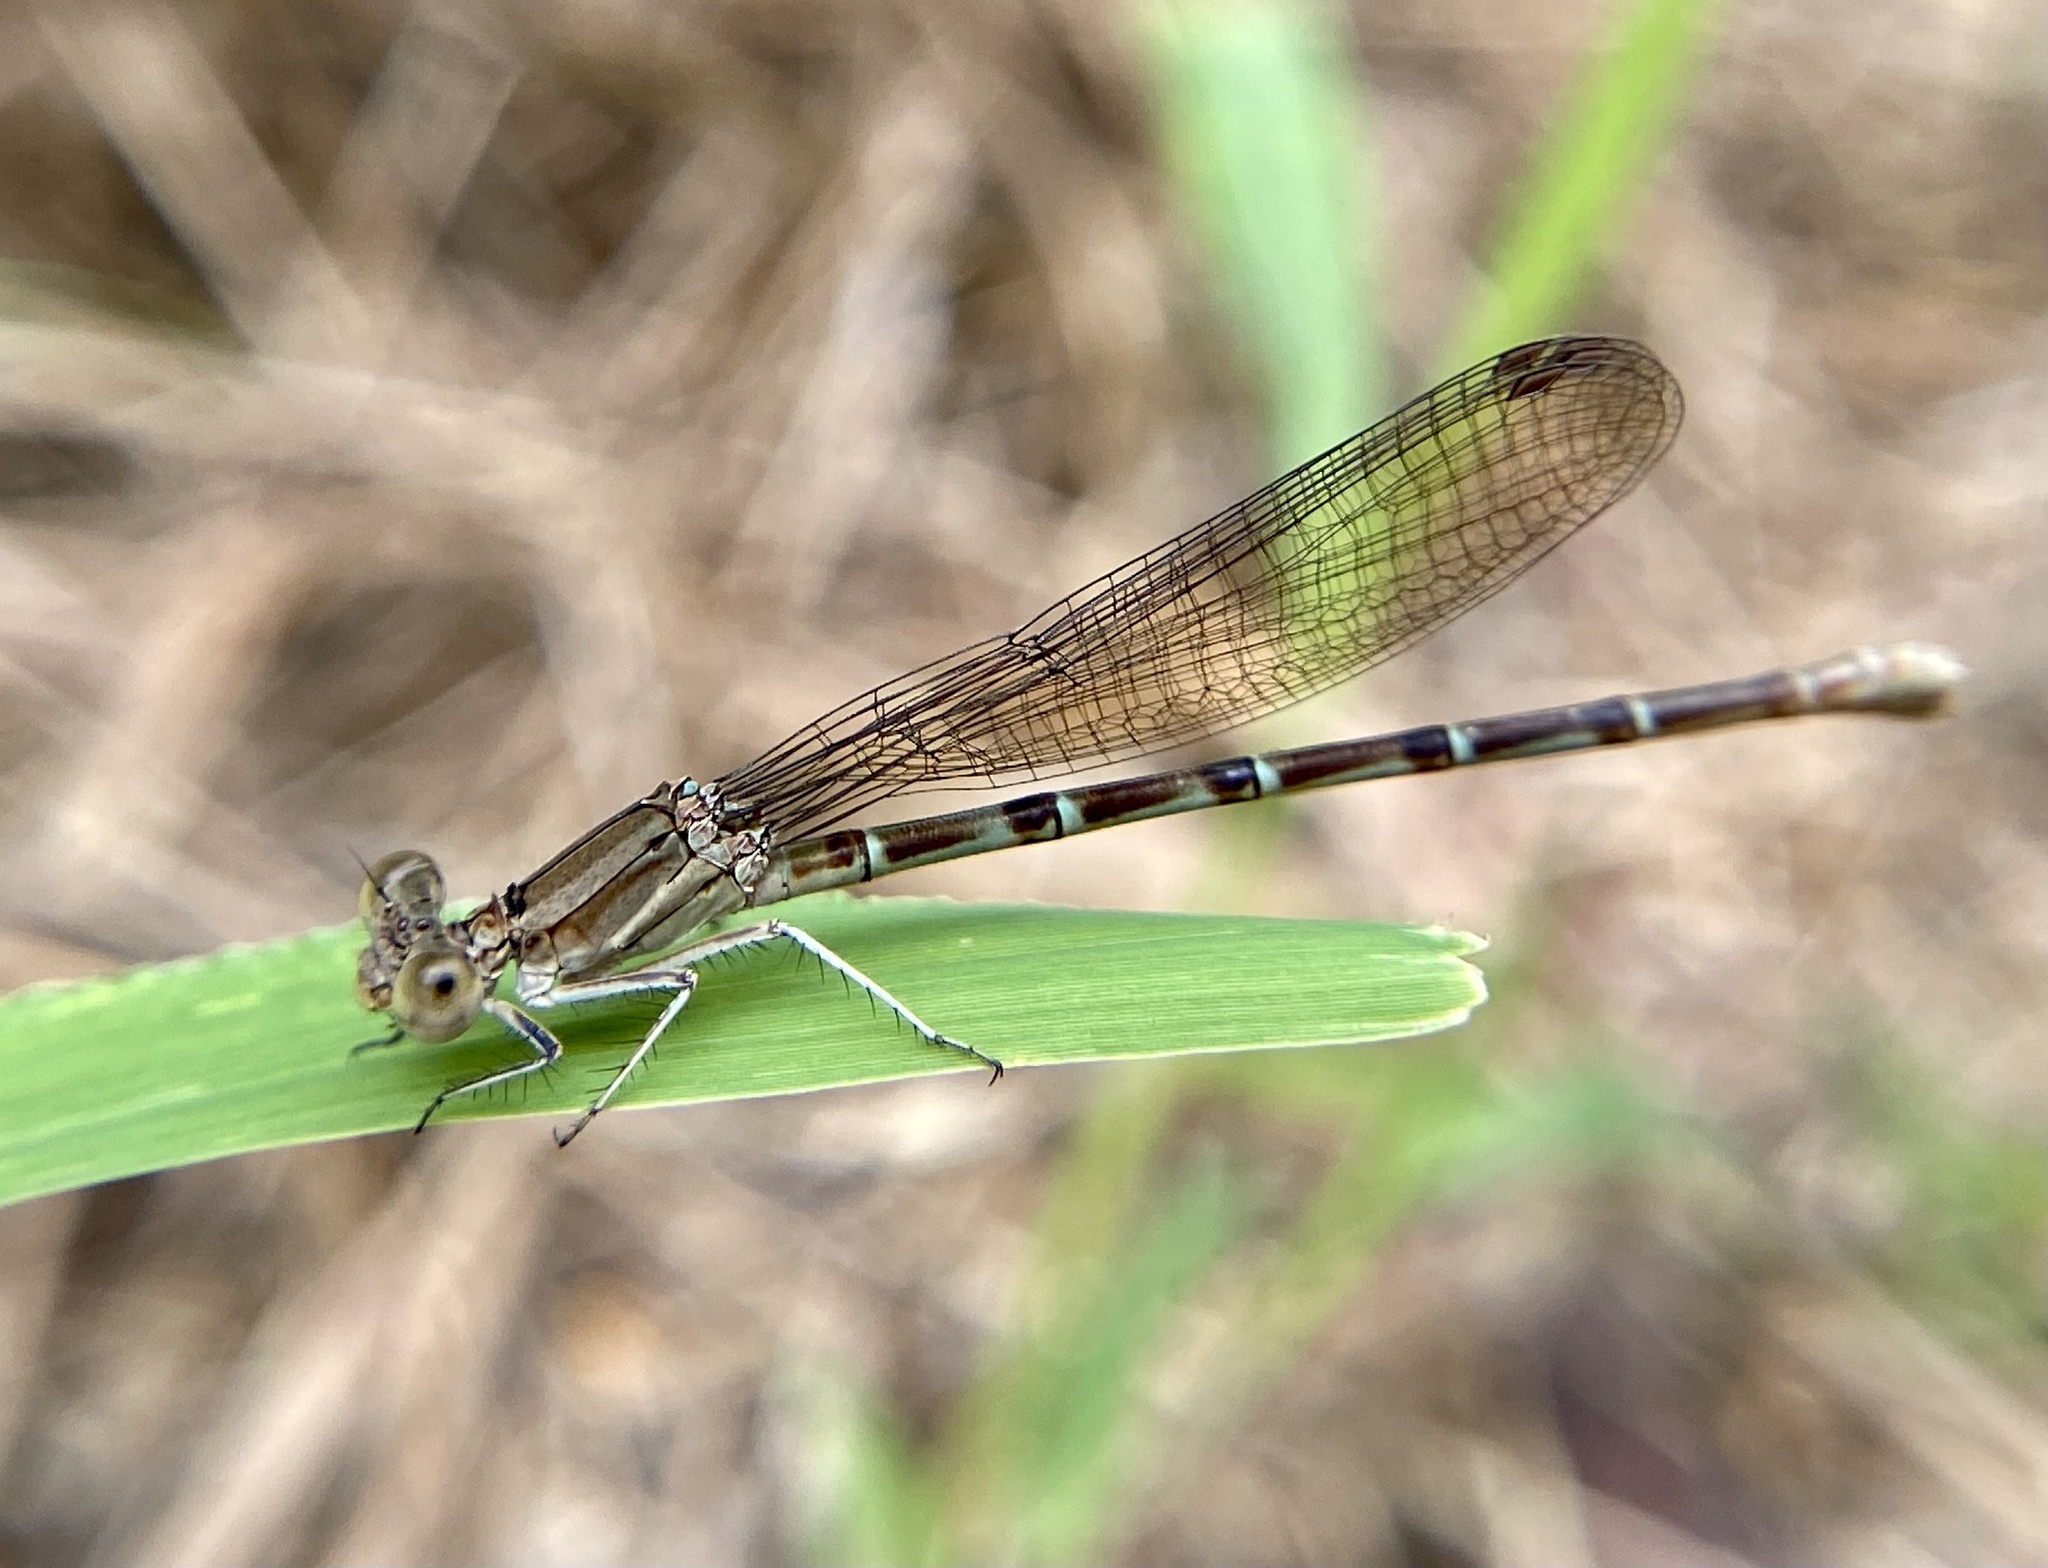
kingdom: Animalia
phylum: Arthropoda
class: Insecta
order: Odonata
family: Coenagrionidae
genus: Argia
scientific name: Argia sedula
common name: Blue-ringed dancer
